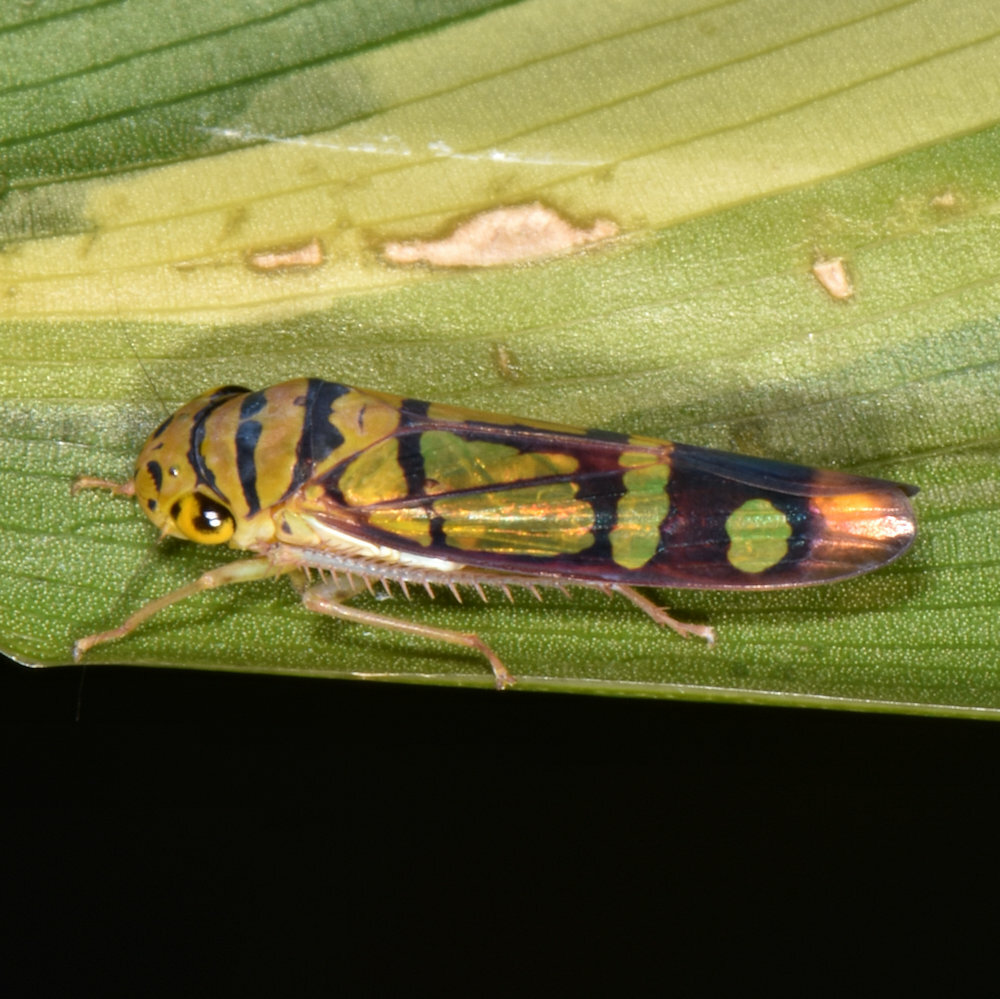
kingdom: Animalia
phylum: Arthropoda
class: Insecta
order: Hemiptera
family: Cicadellidae
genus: Dilobopterus
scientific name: Dilobopterus instratus
